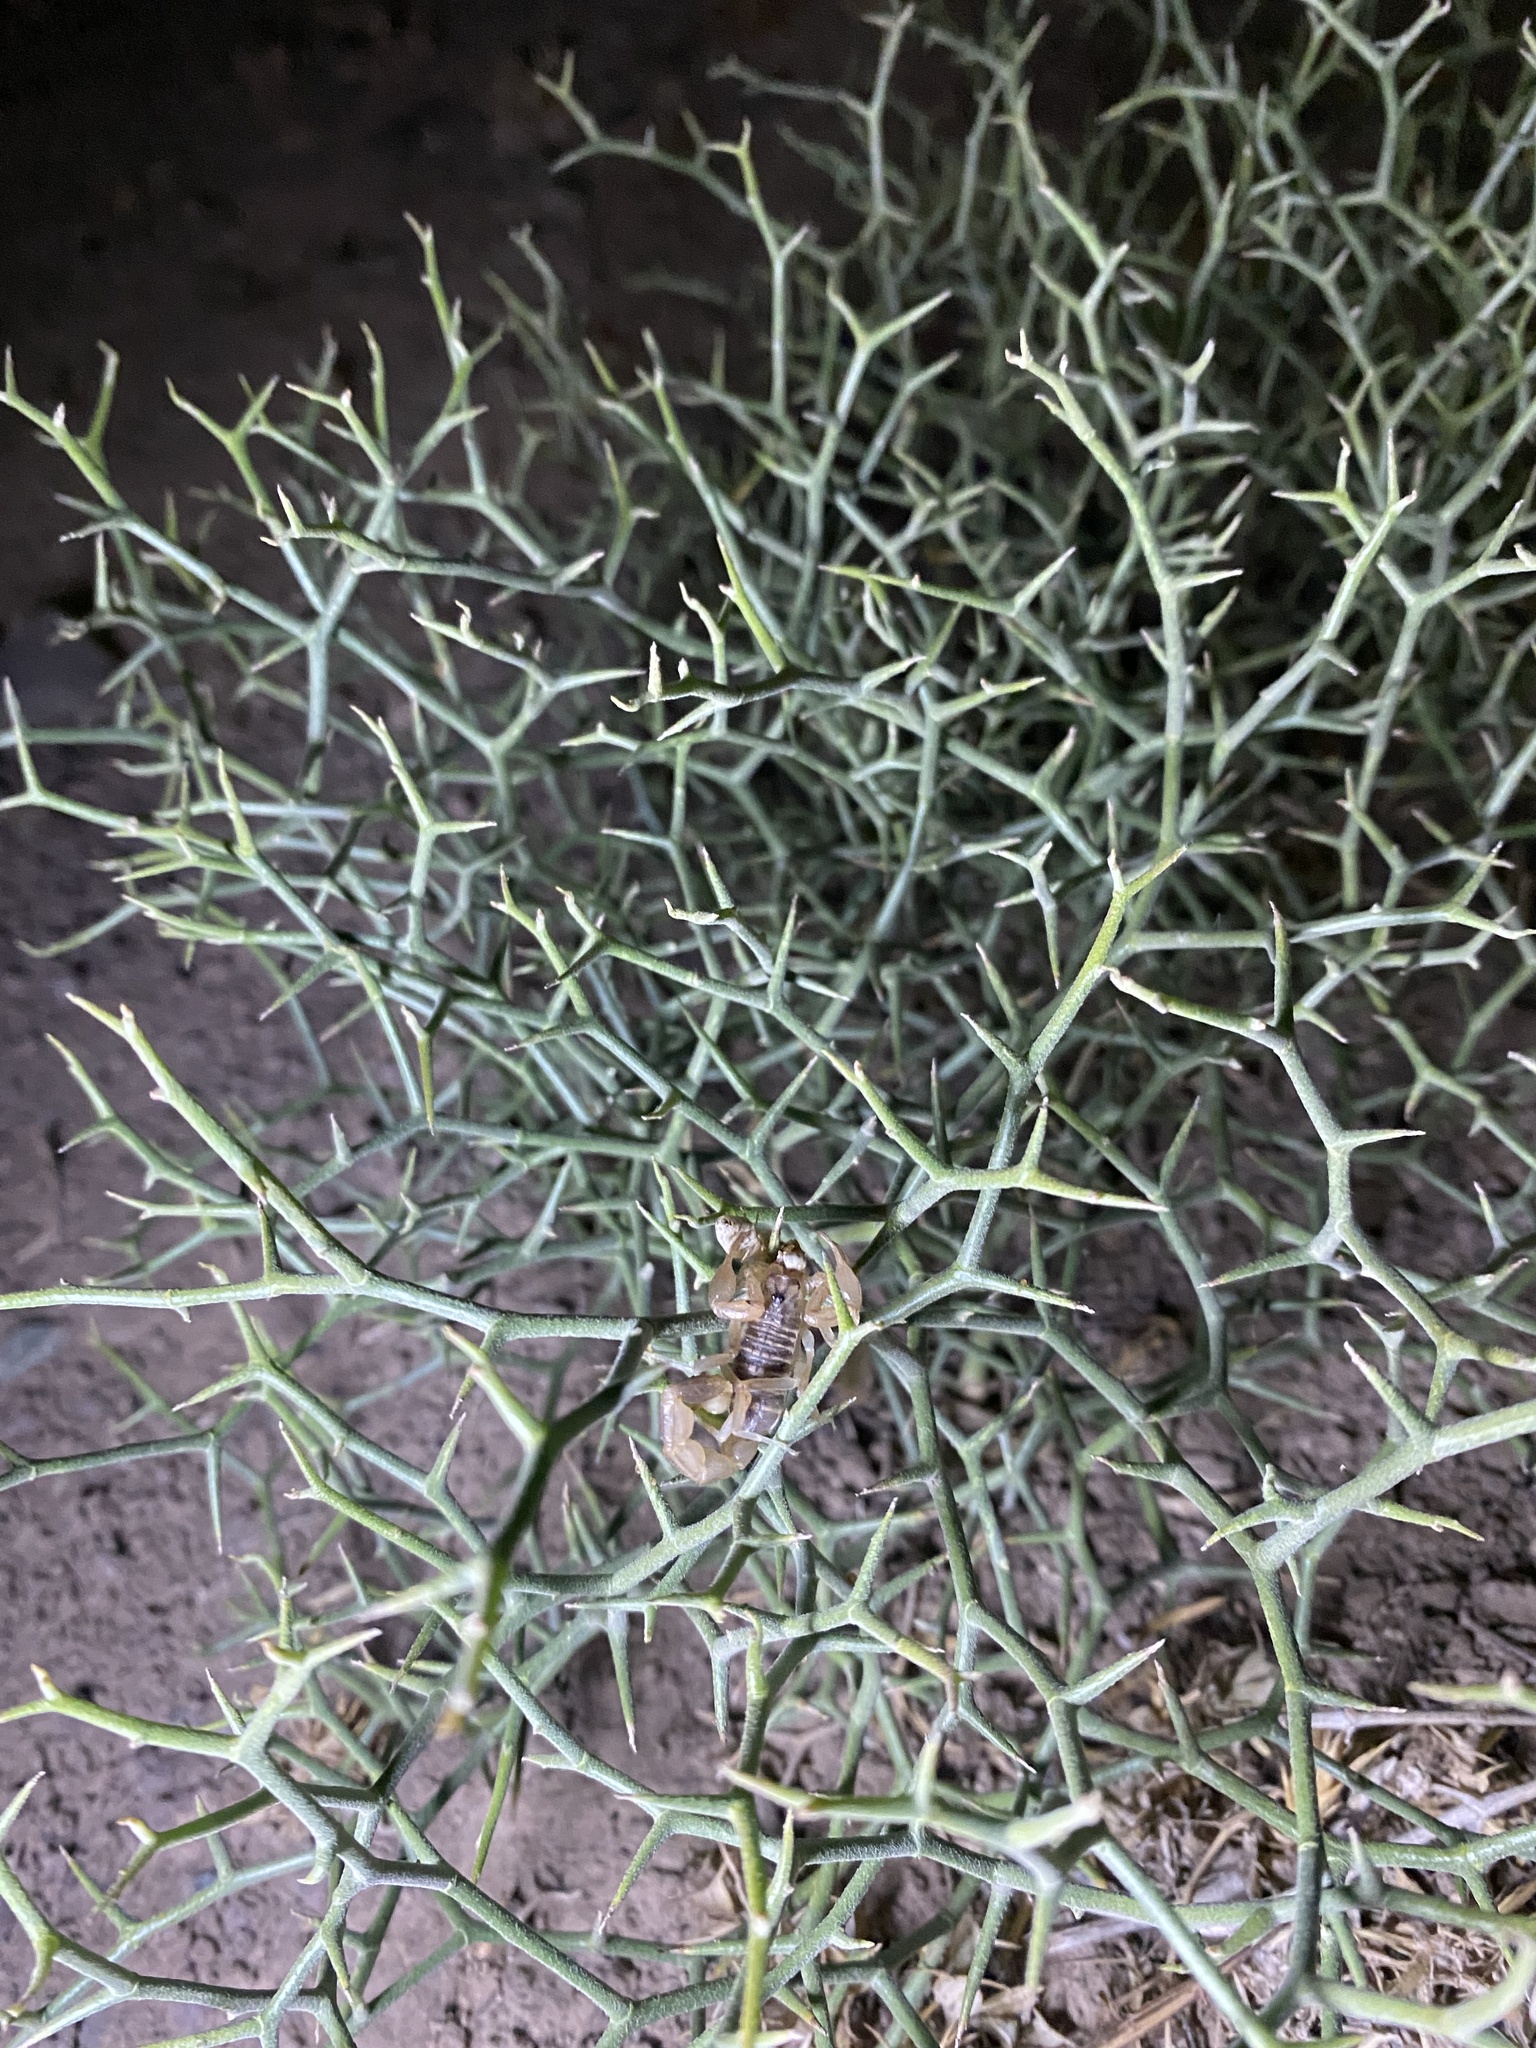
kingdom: Animalia
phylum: Arthropoda
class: Arachnida
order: Scorpiones
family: Buthidae
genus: Mesobuthus
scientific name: Mesobuthus afghanus
